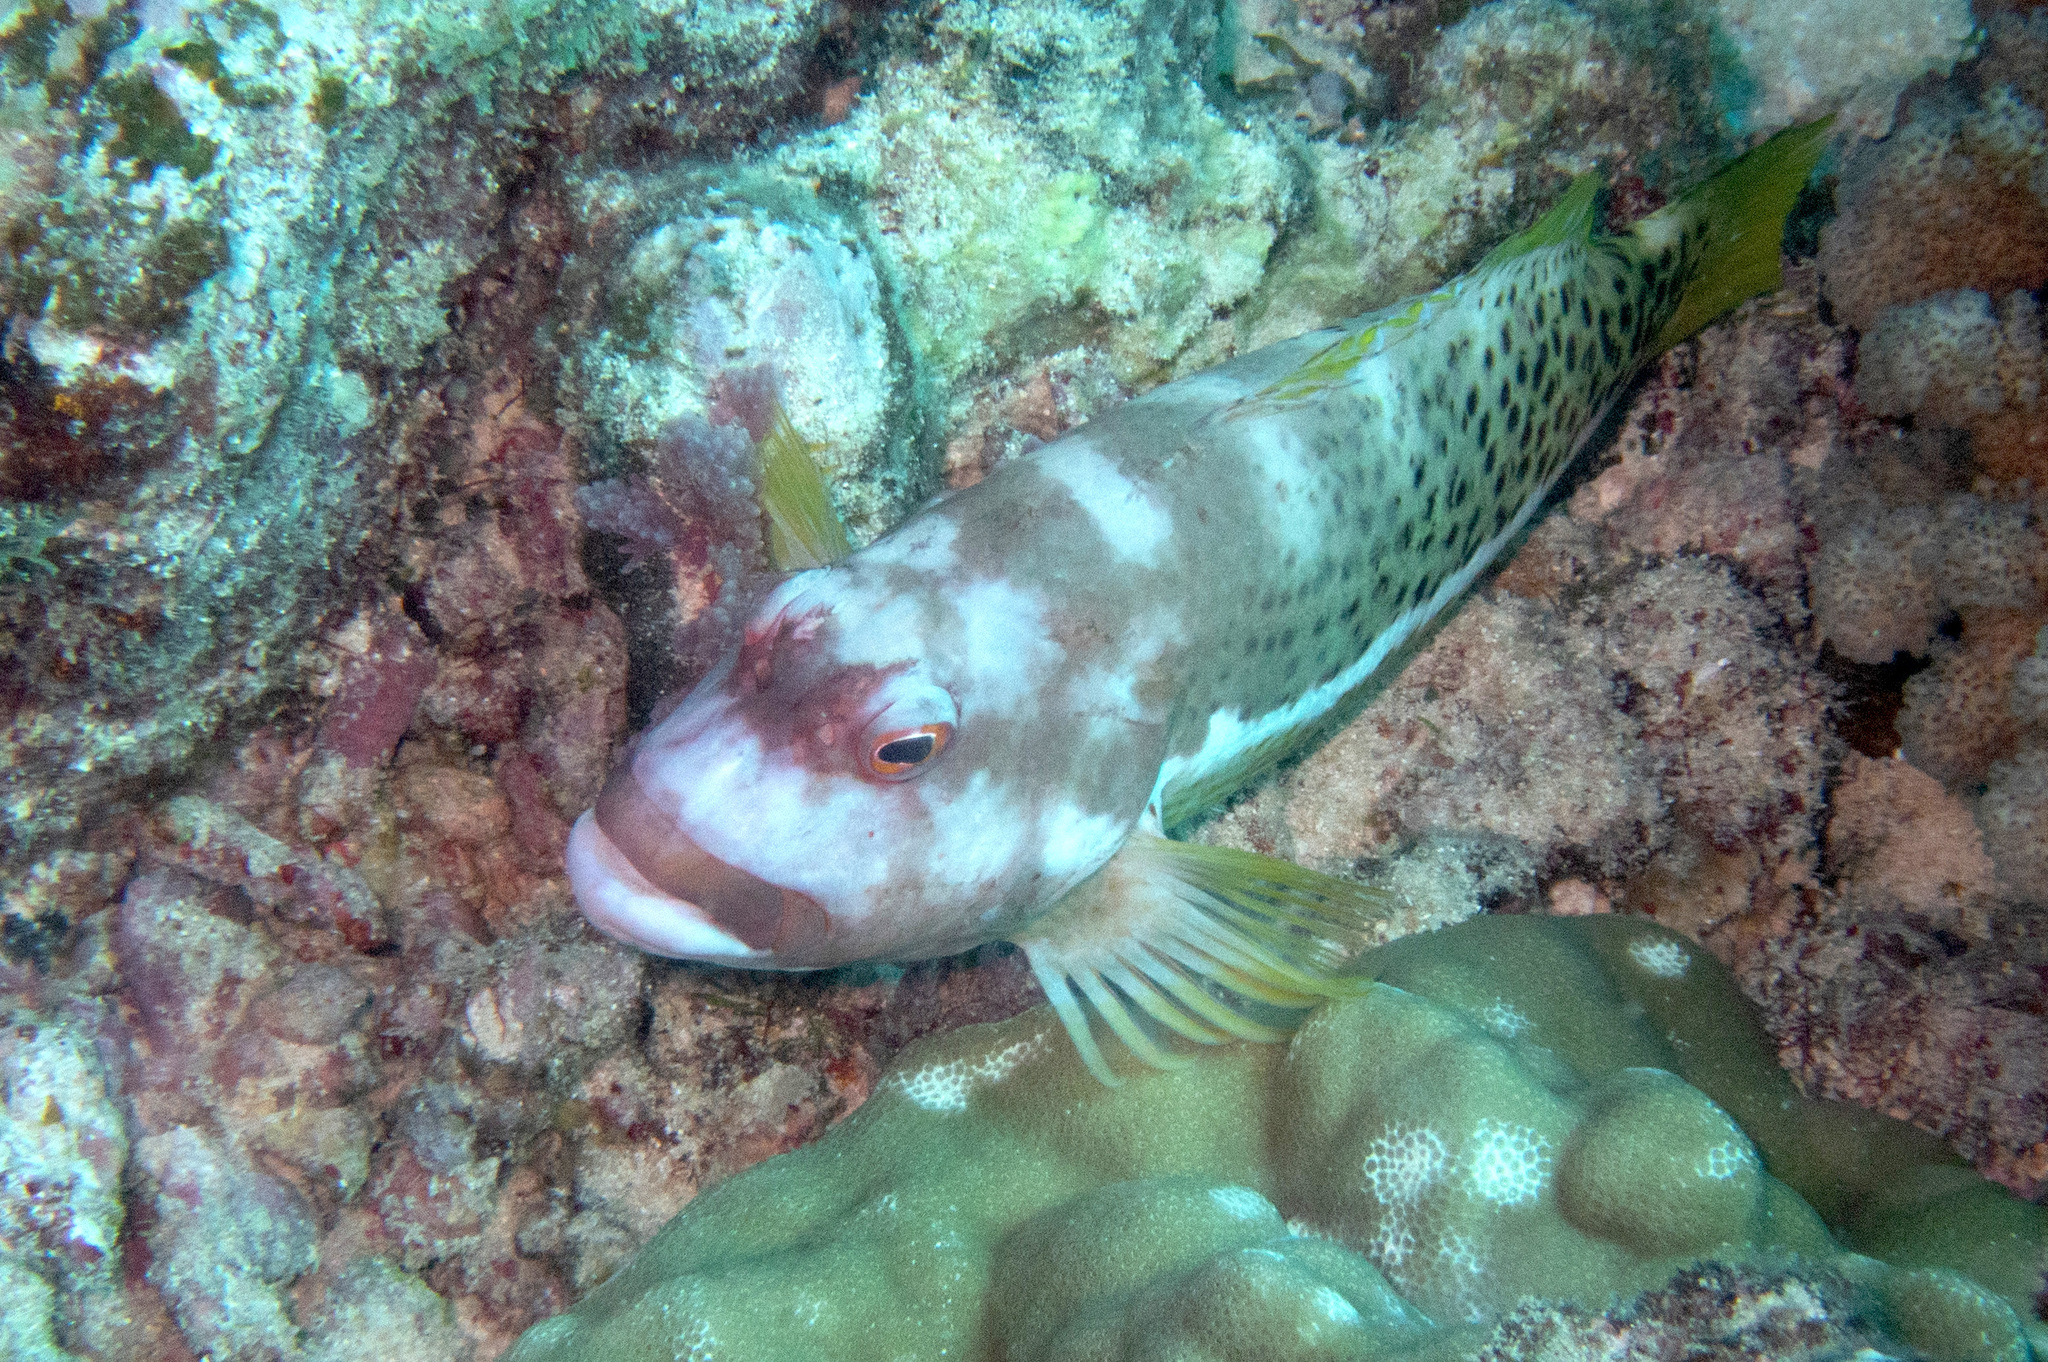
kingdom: Animalia
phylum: Chordata
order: Perciformes
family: Cirrhitidae
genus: Paracirrhites
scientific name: Paracirrhites hemistictus
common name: Halfspotted hawkfish
